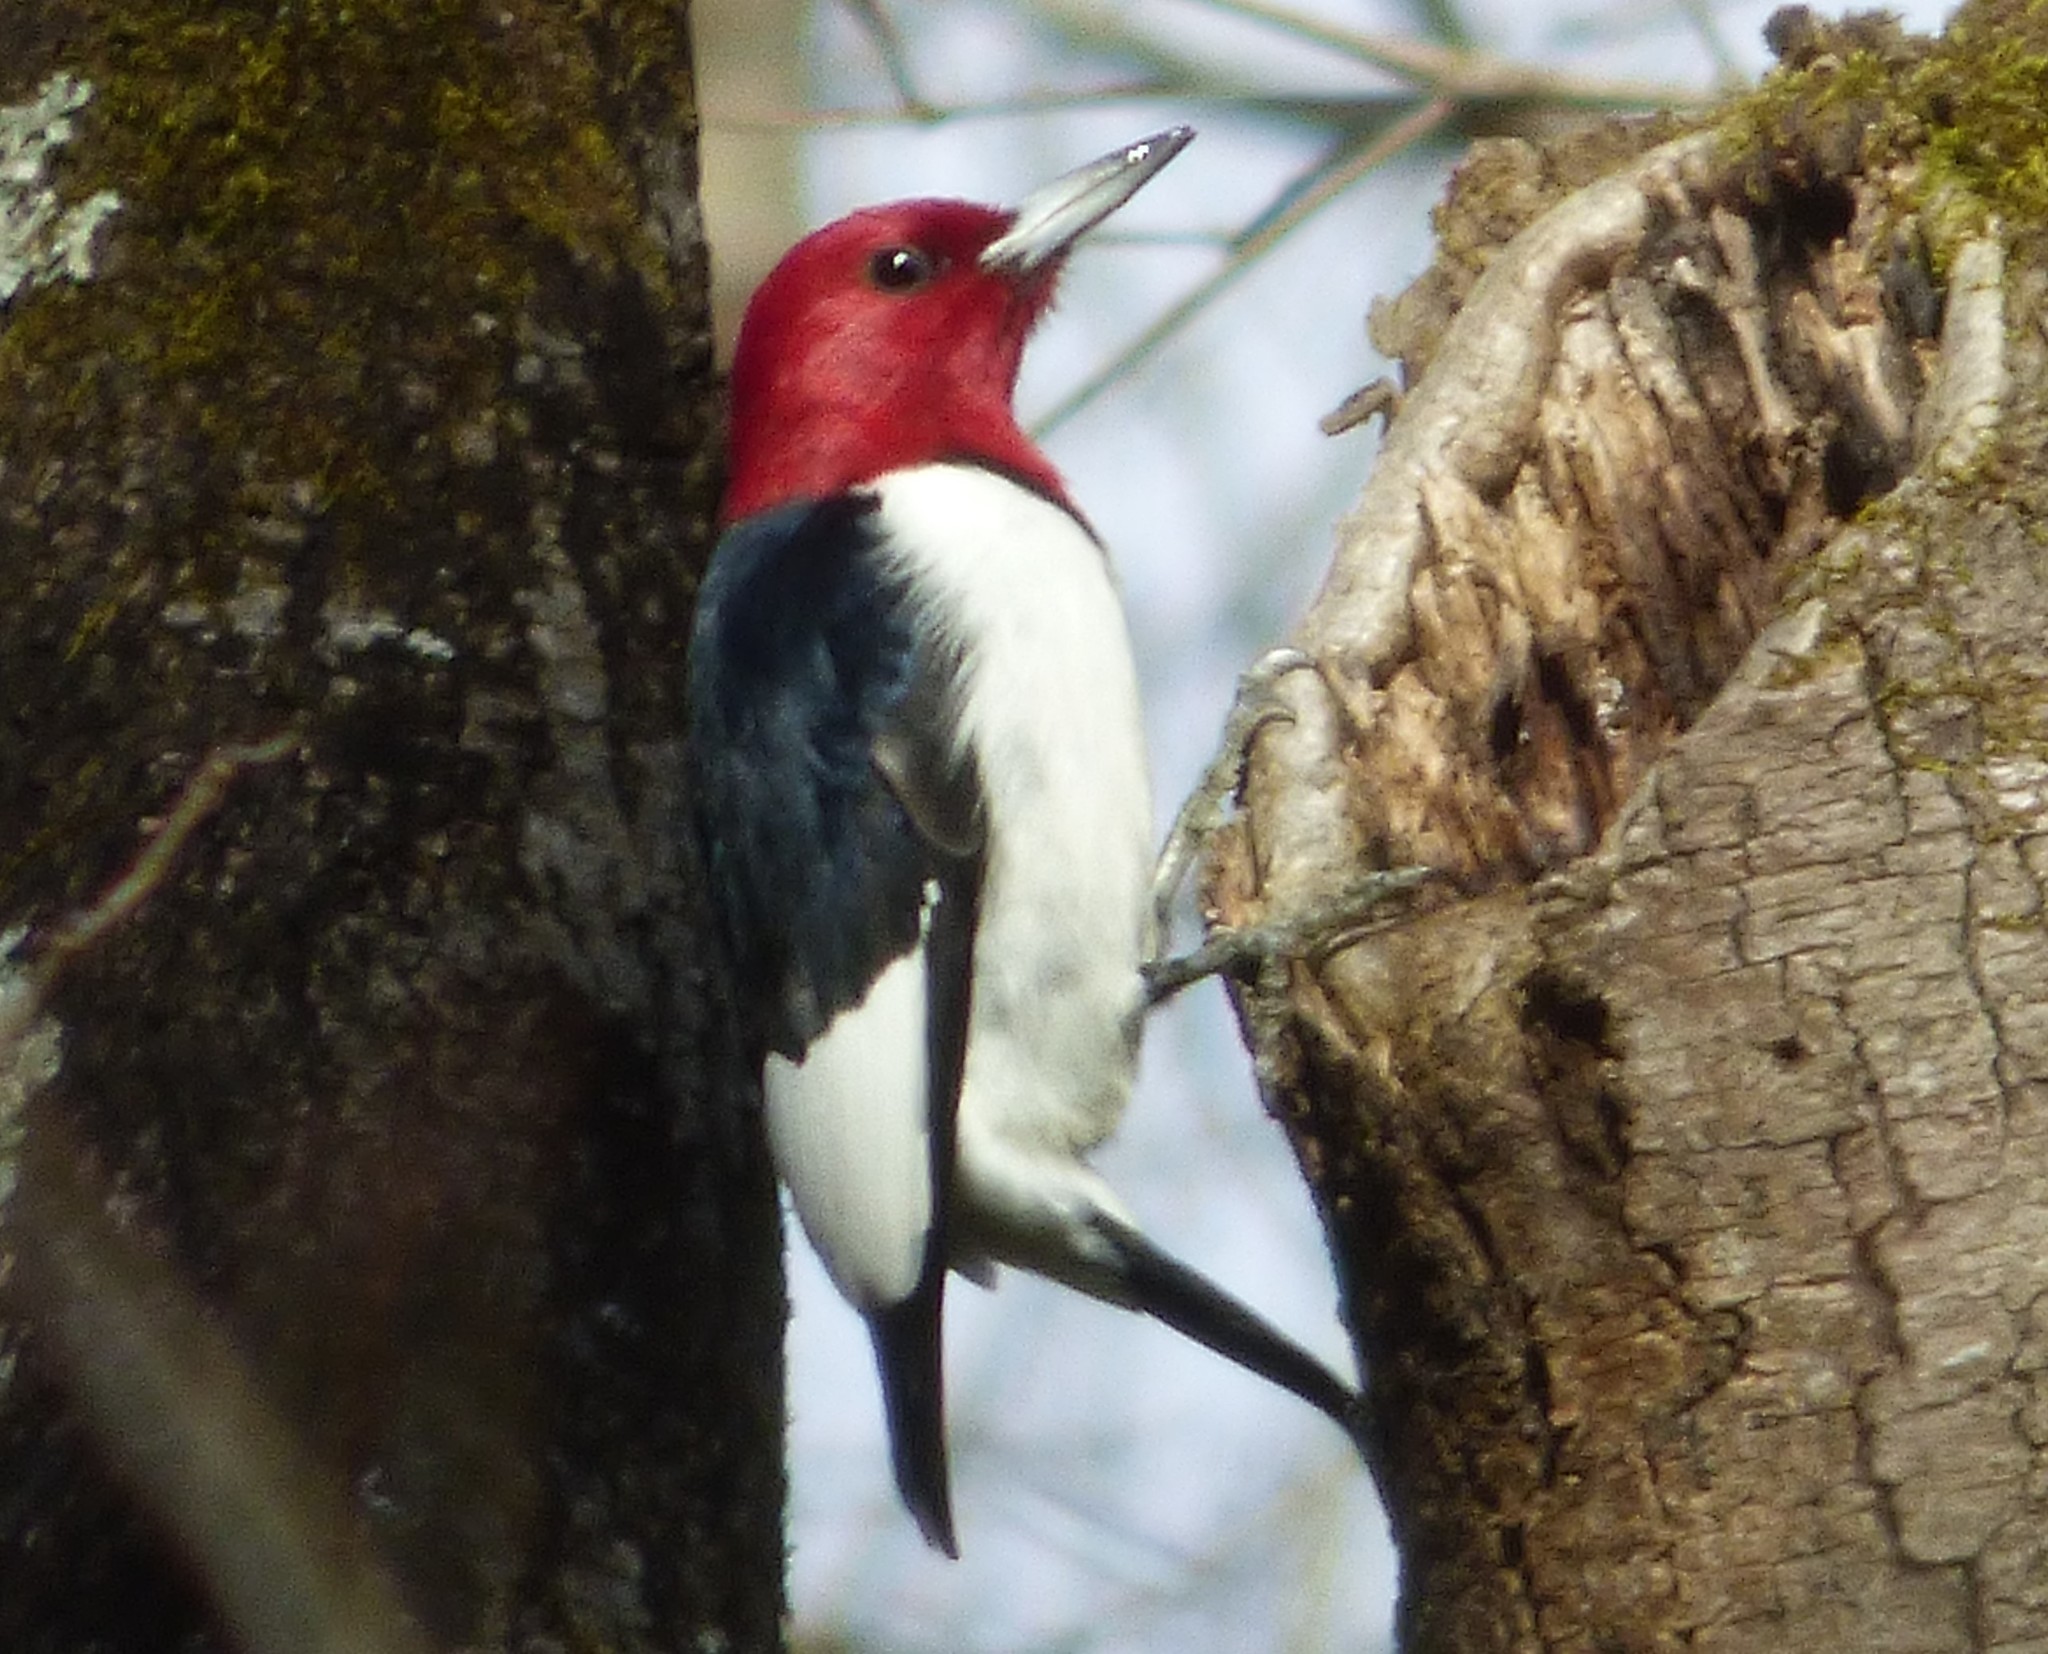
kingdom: Animalia
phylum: Chordata
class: Aves
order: Piciformes
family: Picidae
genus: Melanerpes
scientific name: Melanerpes erythrocephalus
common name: Red-headed woodpecker
